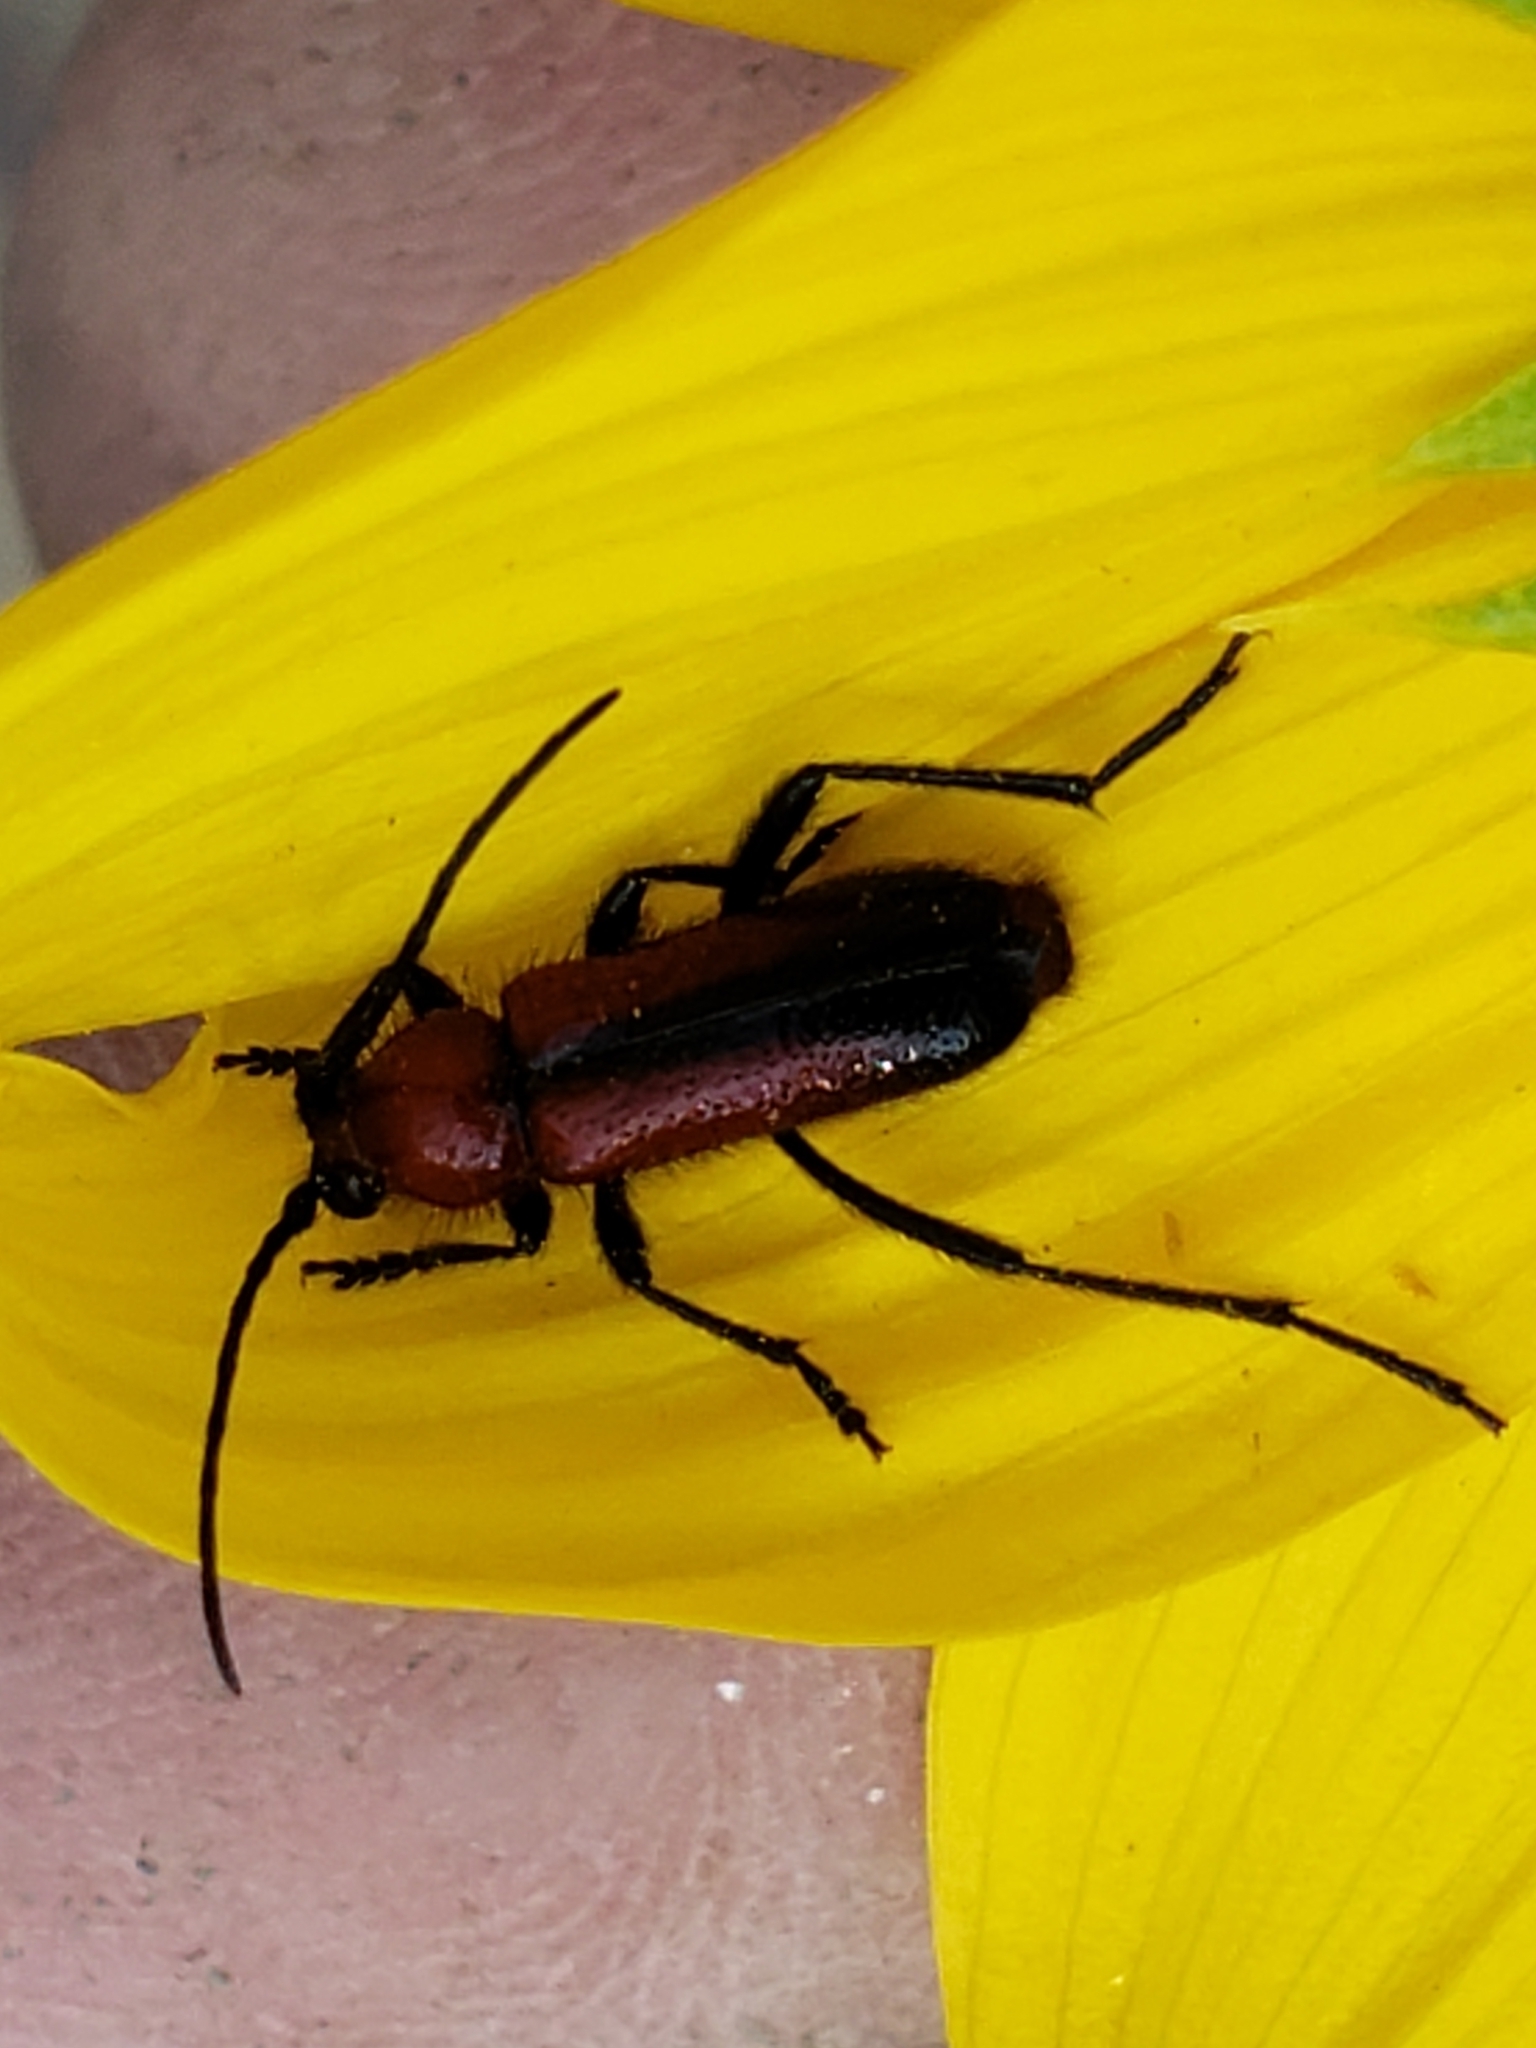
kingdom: Animalia
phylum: Arthropoda
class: Insecta
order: Coleoptera
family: Cerambycidae
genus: Batyle
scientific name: Batyle suturalis
